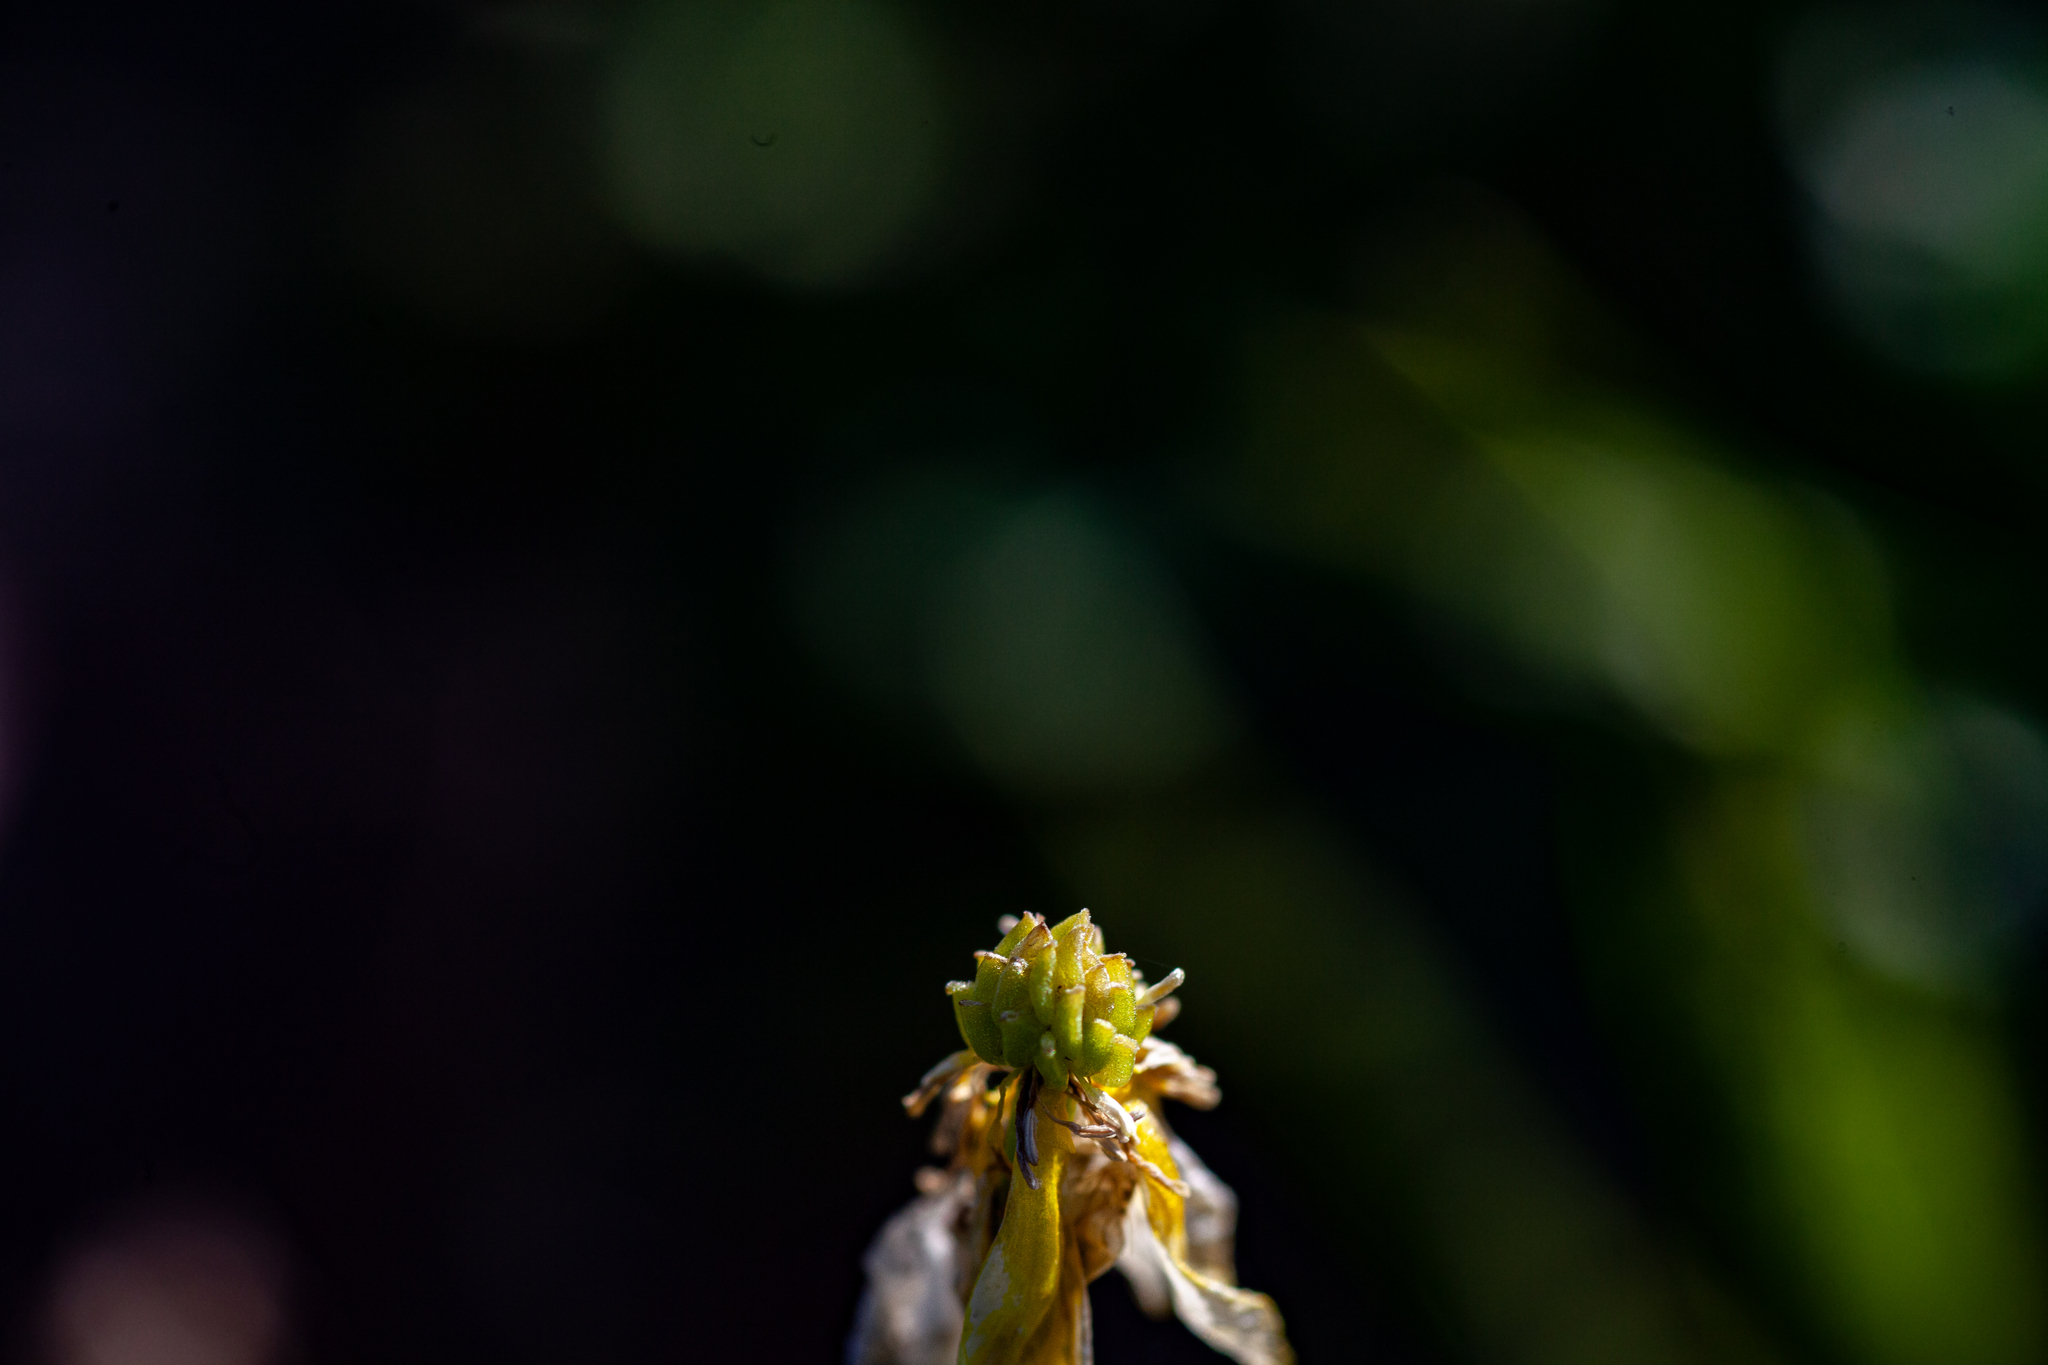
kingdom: Plantae
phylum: Tracheophyta
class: Magnoliopsida
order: Ranunculales
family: Ranunculaceae
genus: Ranunculus
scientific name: Ranunculus sardous
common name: Hairy buttercup
